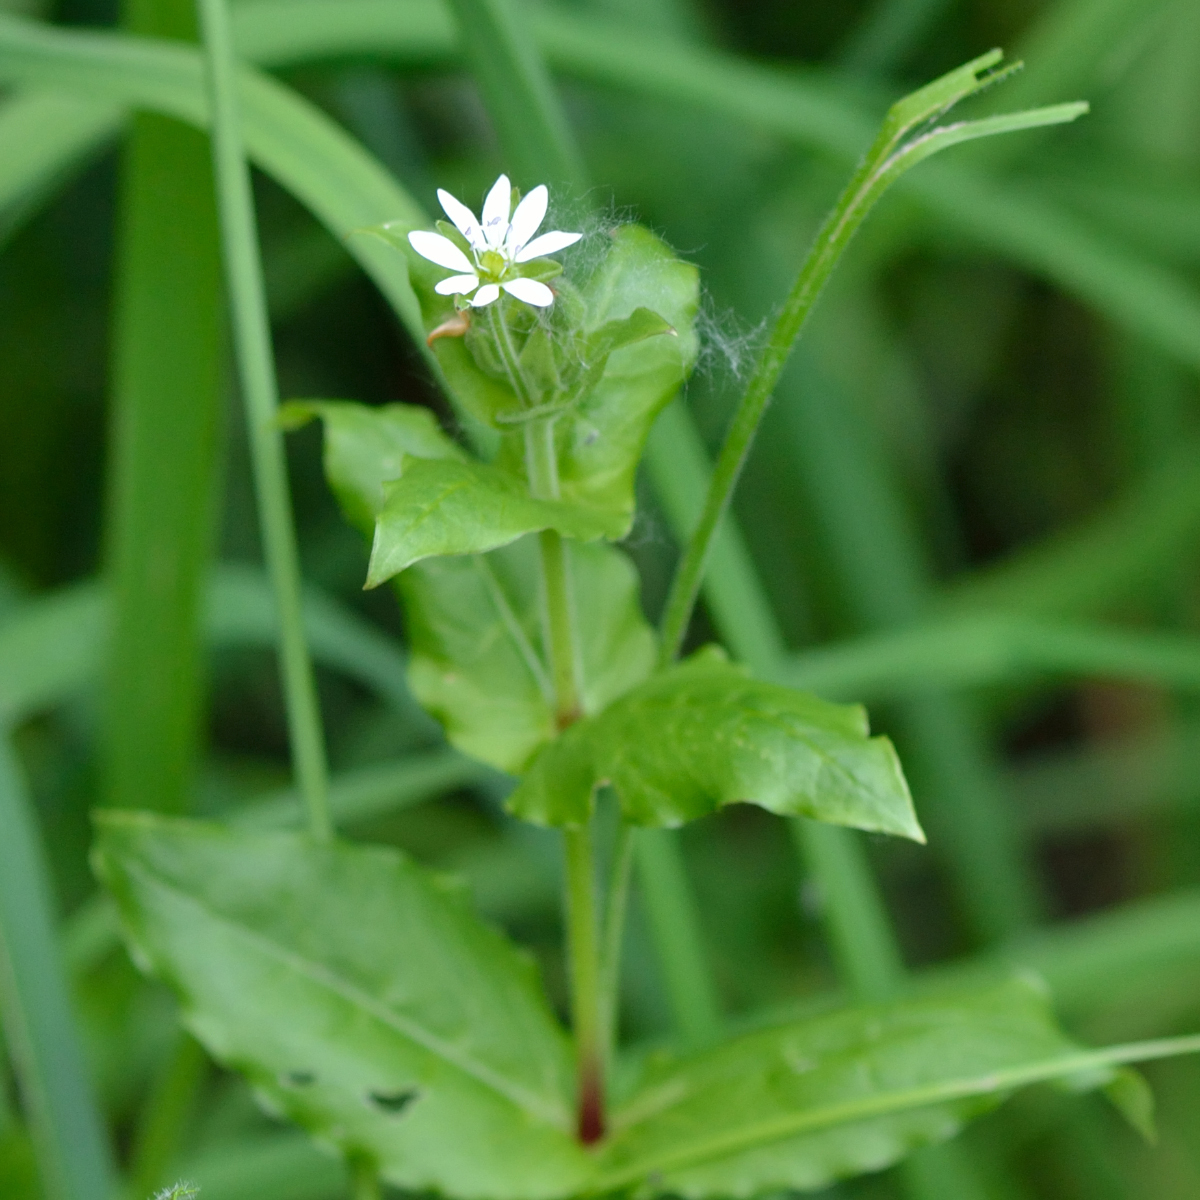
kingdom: Plantae
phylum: Tracheophyta
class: Magnoliopsida
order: Caryophyllales
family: Caryophyllaceae
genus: Stellaria
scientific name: Stellaria aquatica
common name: Water chickweed
